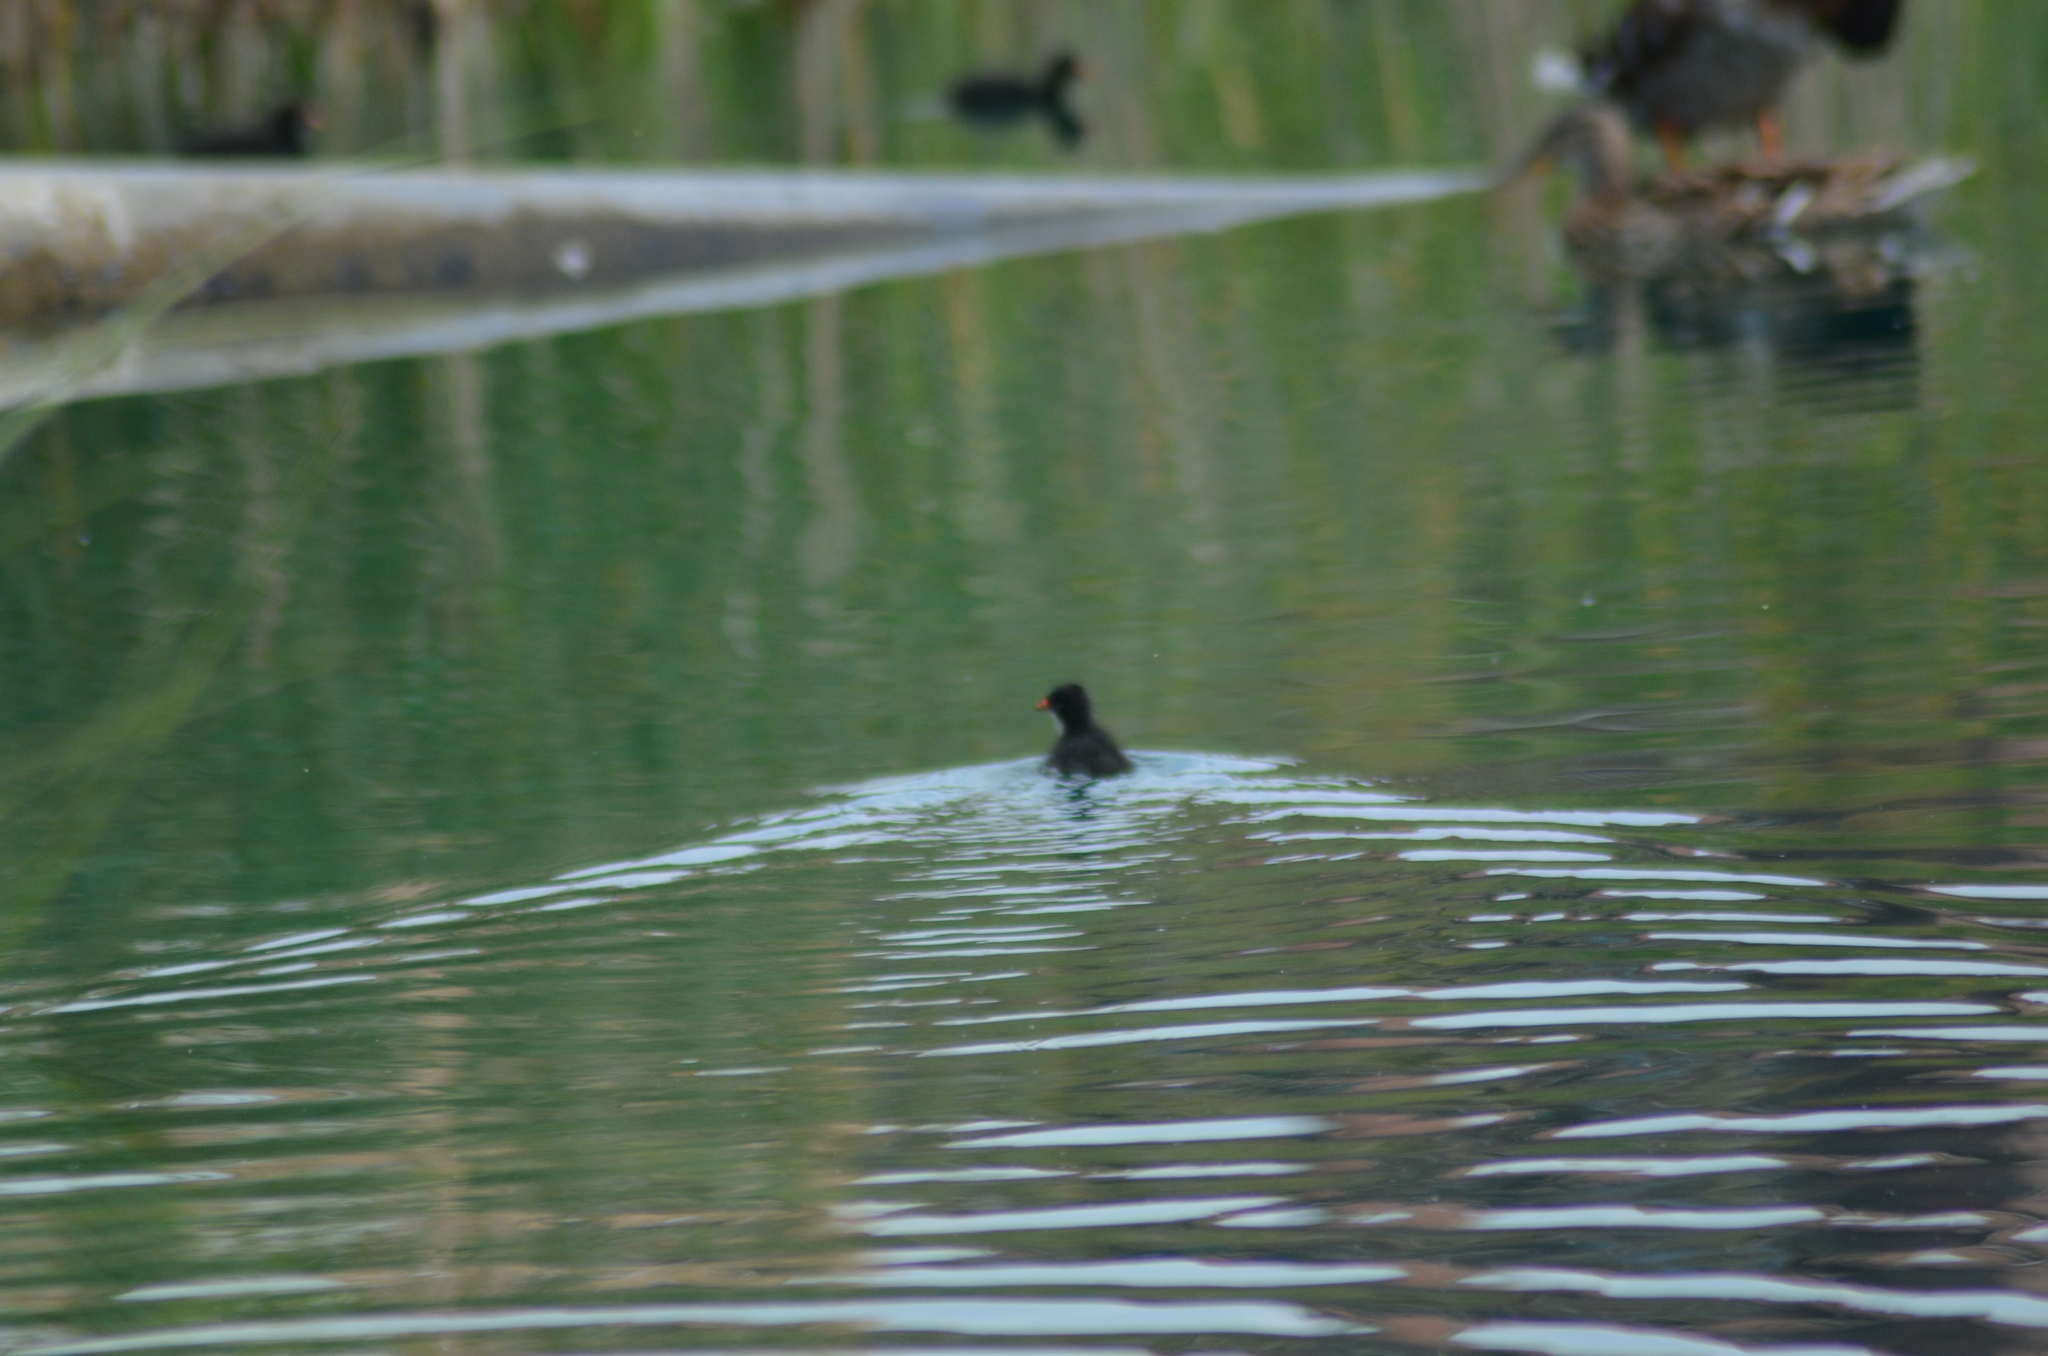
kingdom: Animalia
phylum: Chordata
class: Aves
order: Gruiformes
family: Rallidae
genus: Gallinula
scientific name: Gallinula chloropus
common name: Common moorhen
